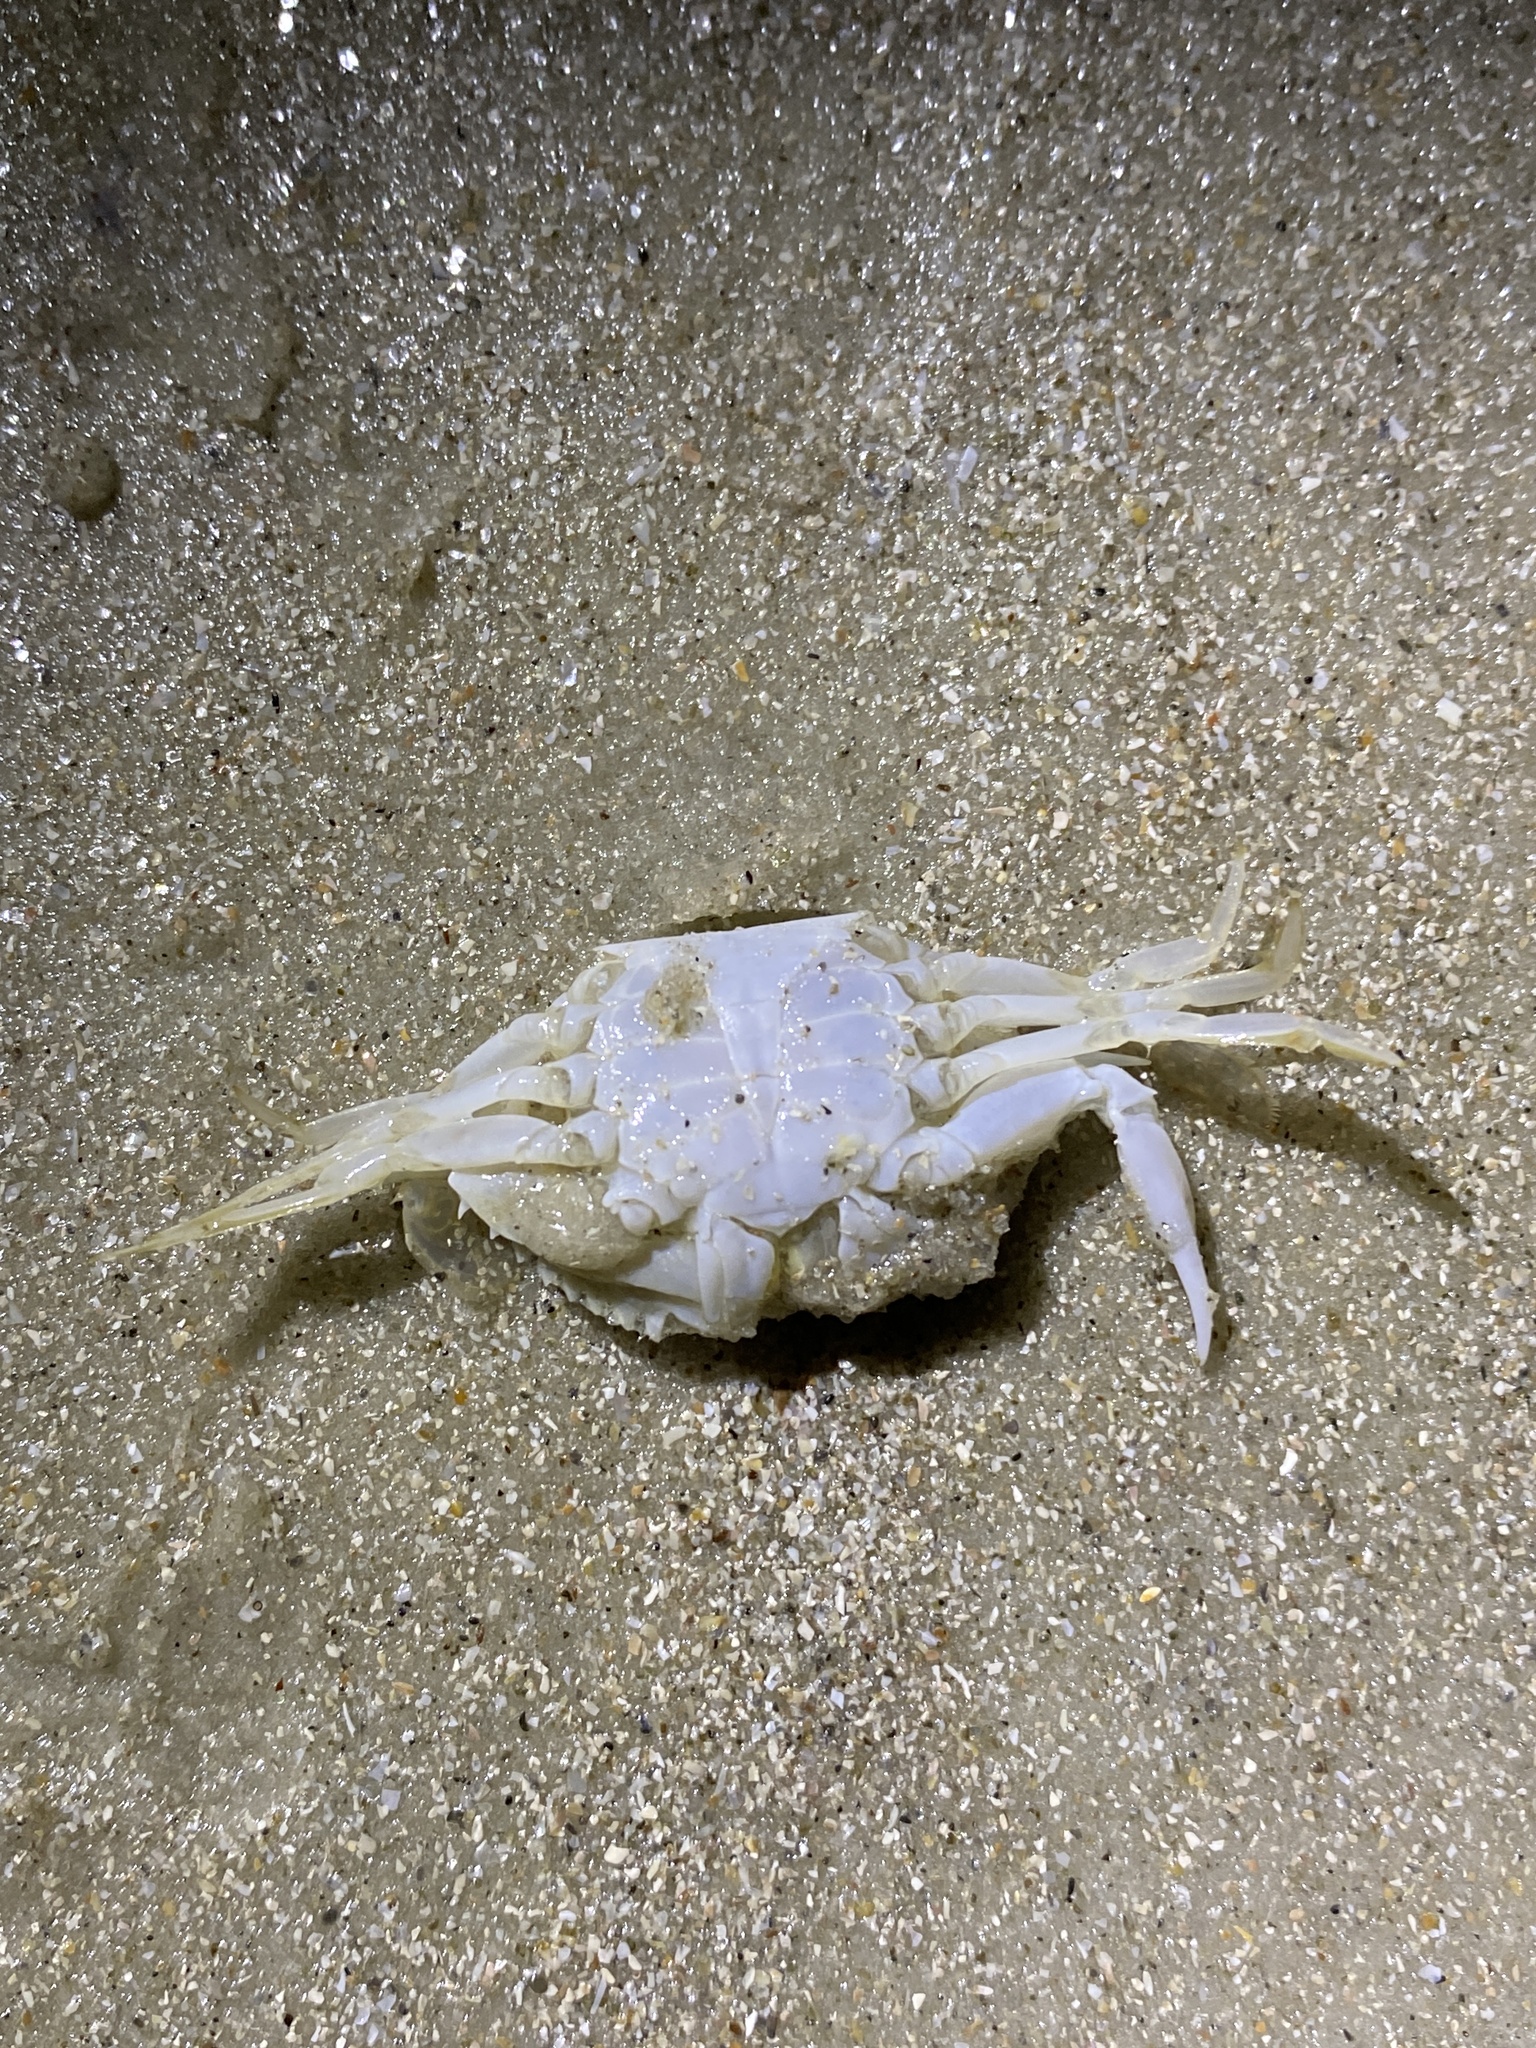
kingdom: Animalia
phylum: Arthropoda
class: Malacostraca
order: Decapoda
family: Portunidae
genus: Arenaeus
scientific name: Arenaeus cribrarius
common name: Speckled crab
